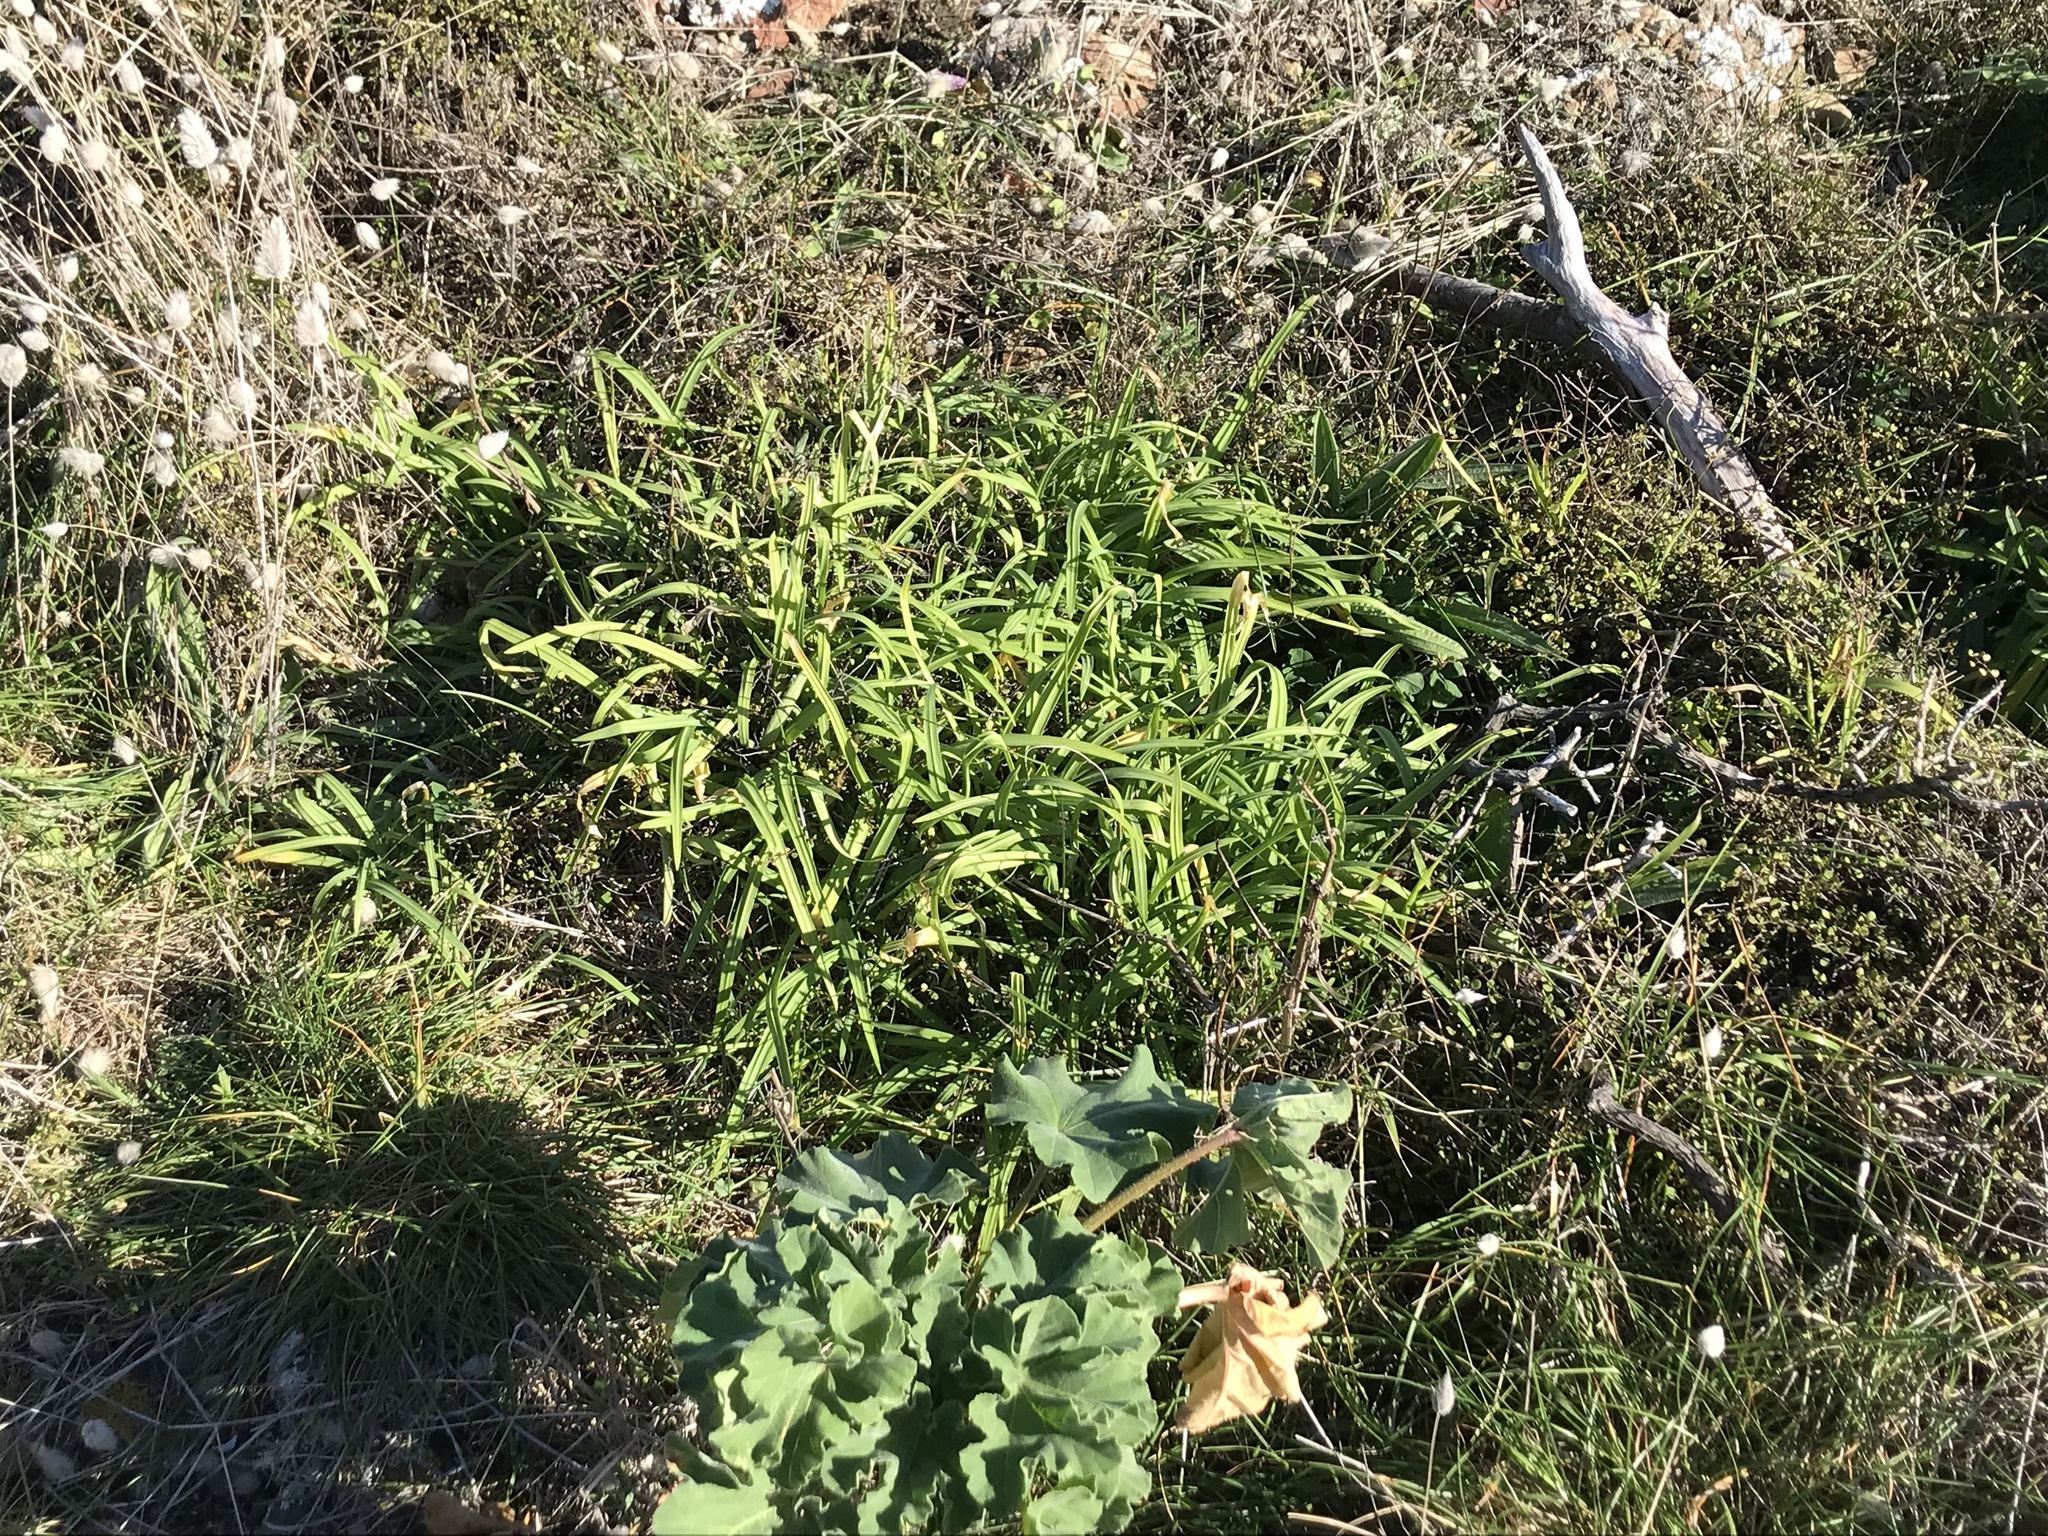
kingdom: Plantae
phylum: Tracheophyta
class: Liliopsida
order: Asparagales
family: Amaryllidaceae
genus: Allium
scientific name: Allium triquetrum
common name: Three-cornered garlic
